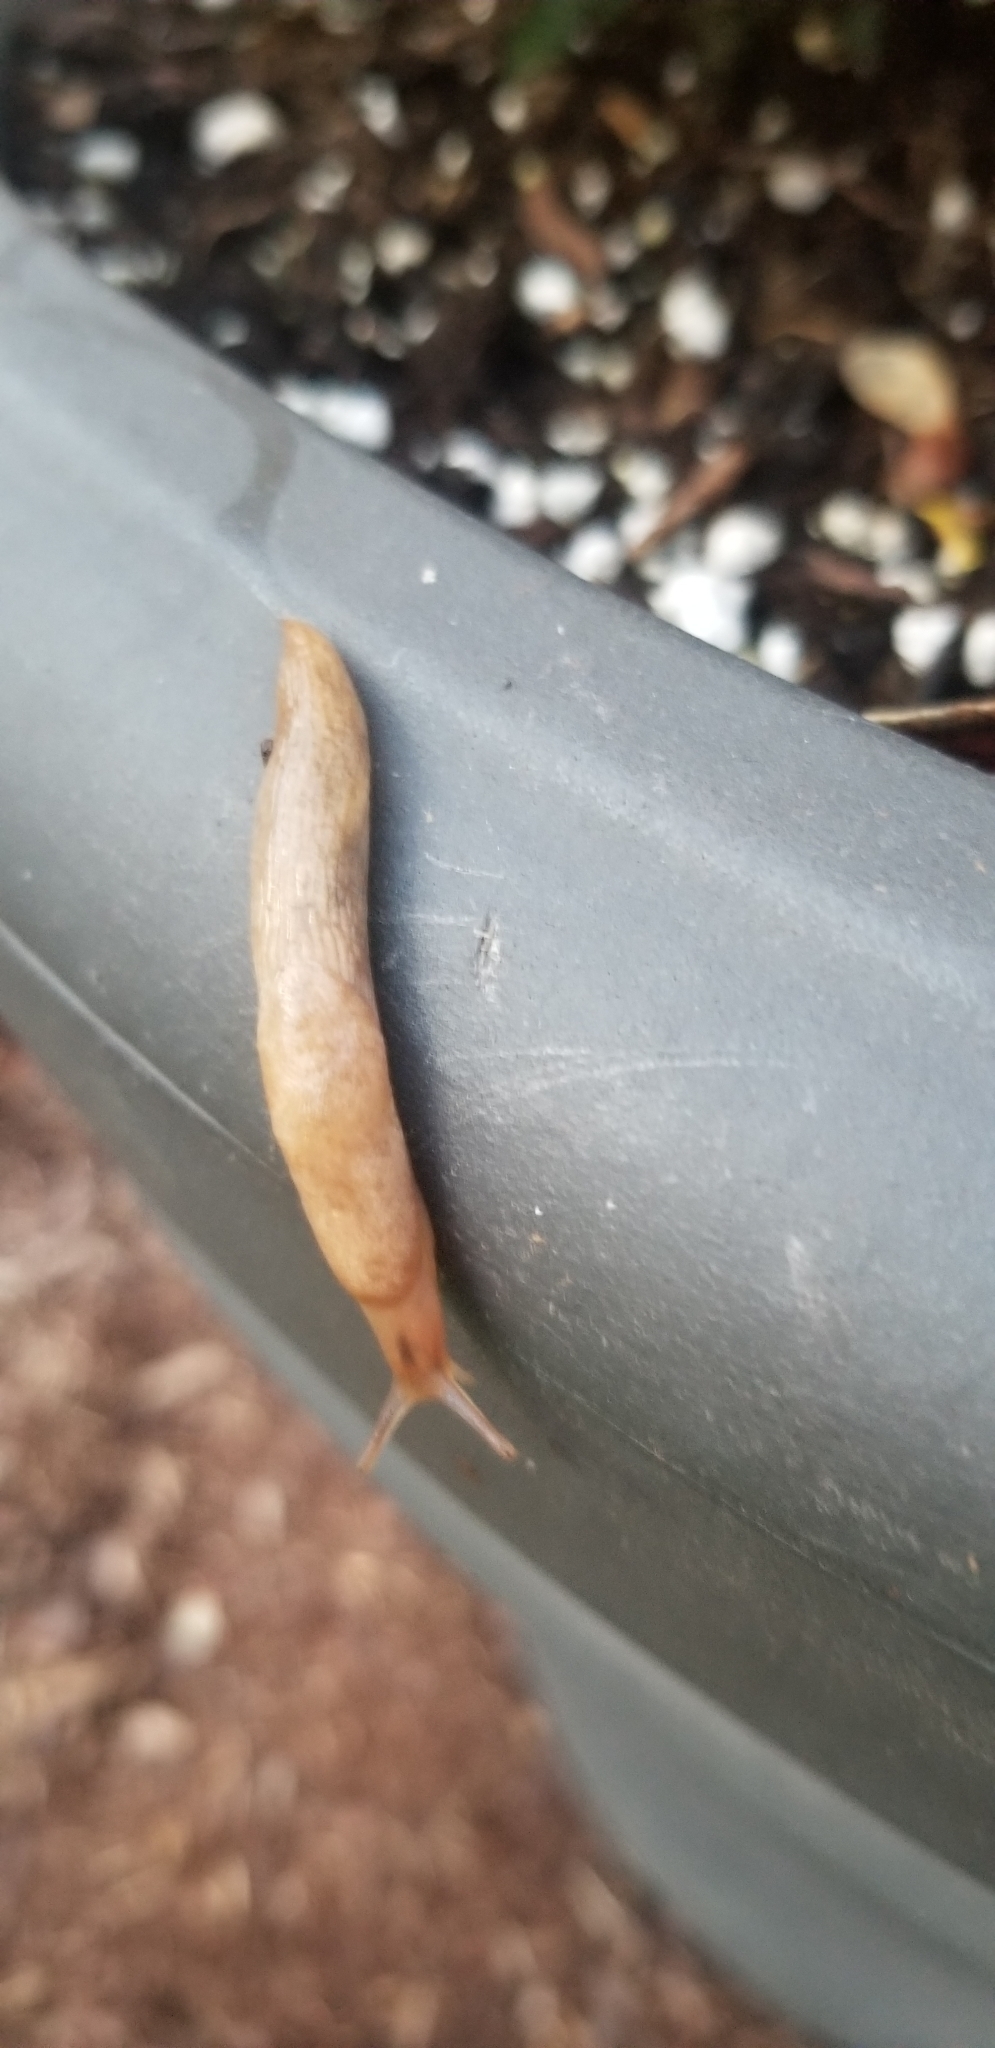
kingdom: Animalia
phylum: Mollusca
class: Gastropoda
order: Stylommatophora
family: Agriolimacidae
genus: Deroceras
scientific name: Deroceras reticulatum
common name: Gray field slug
